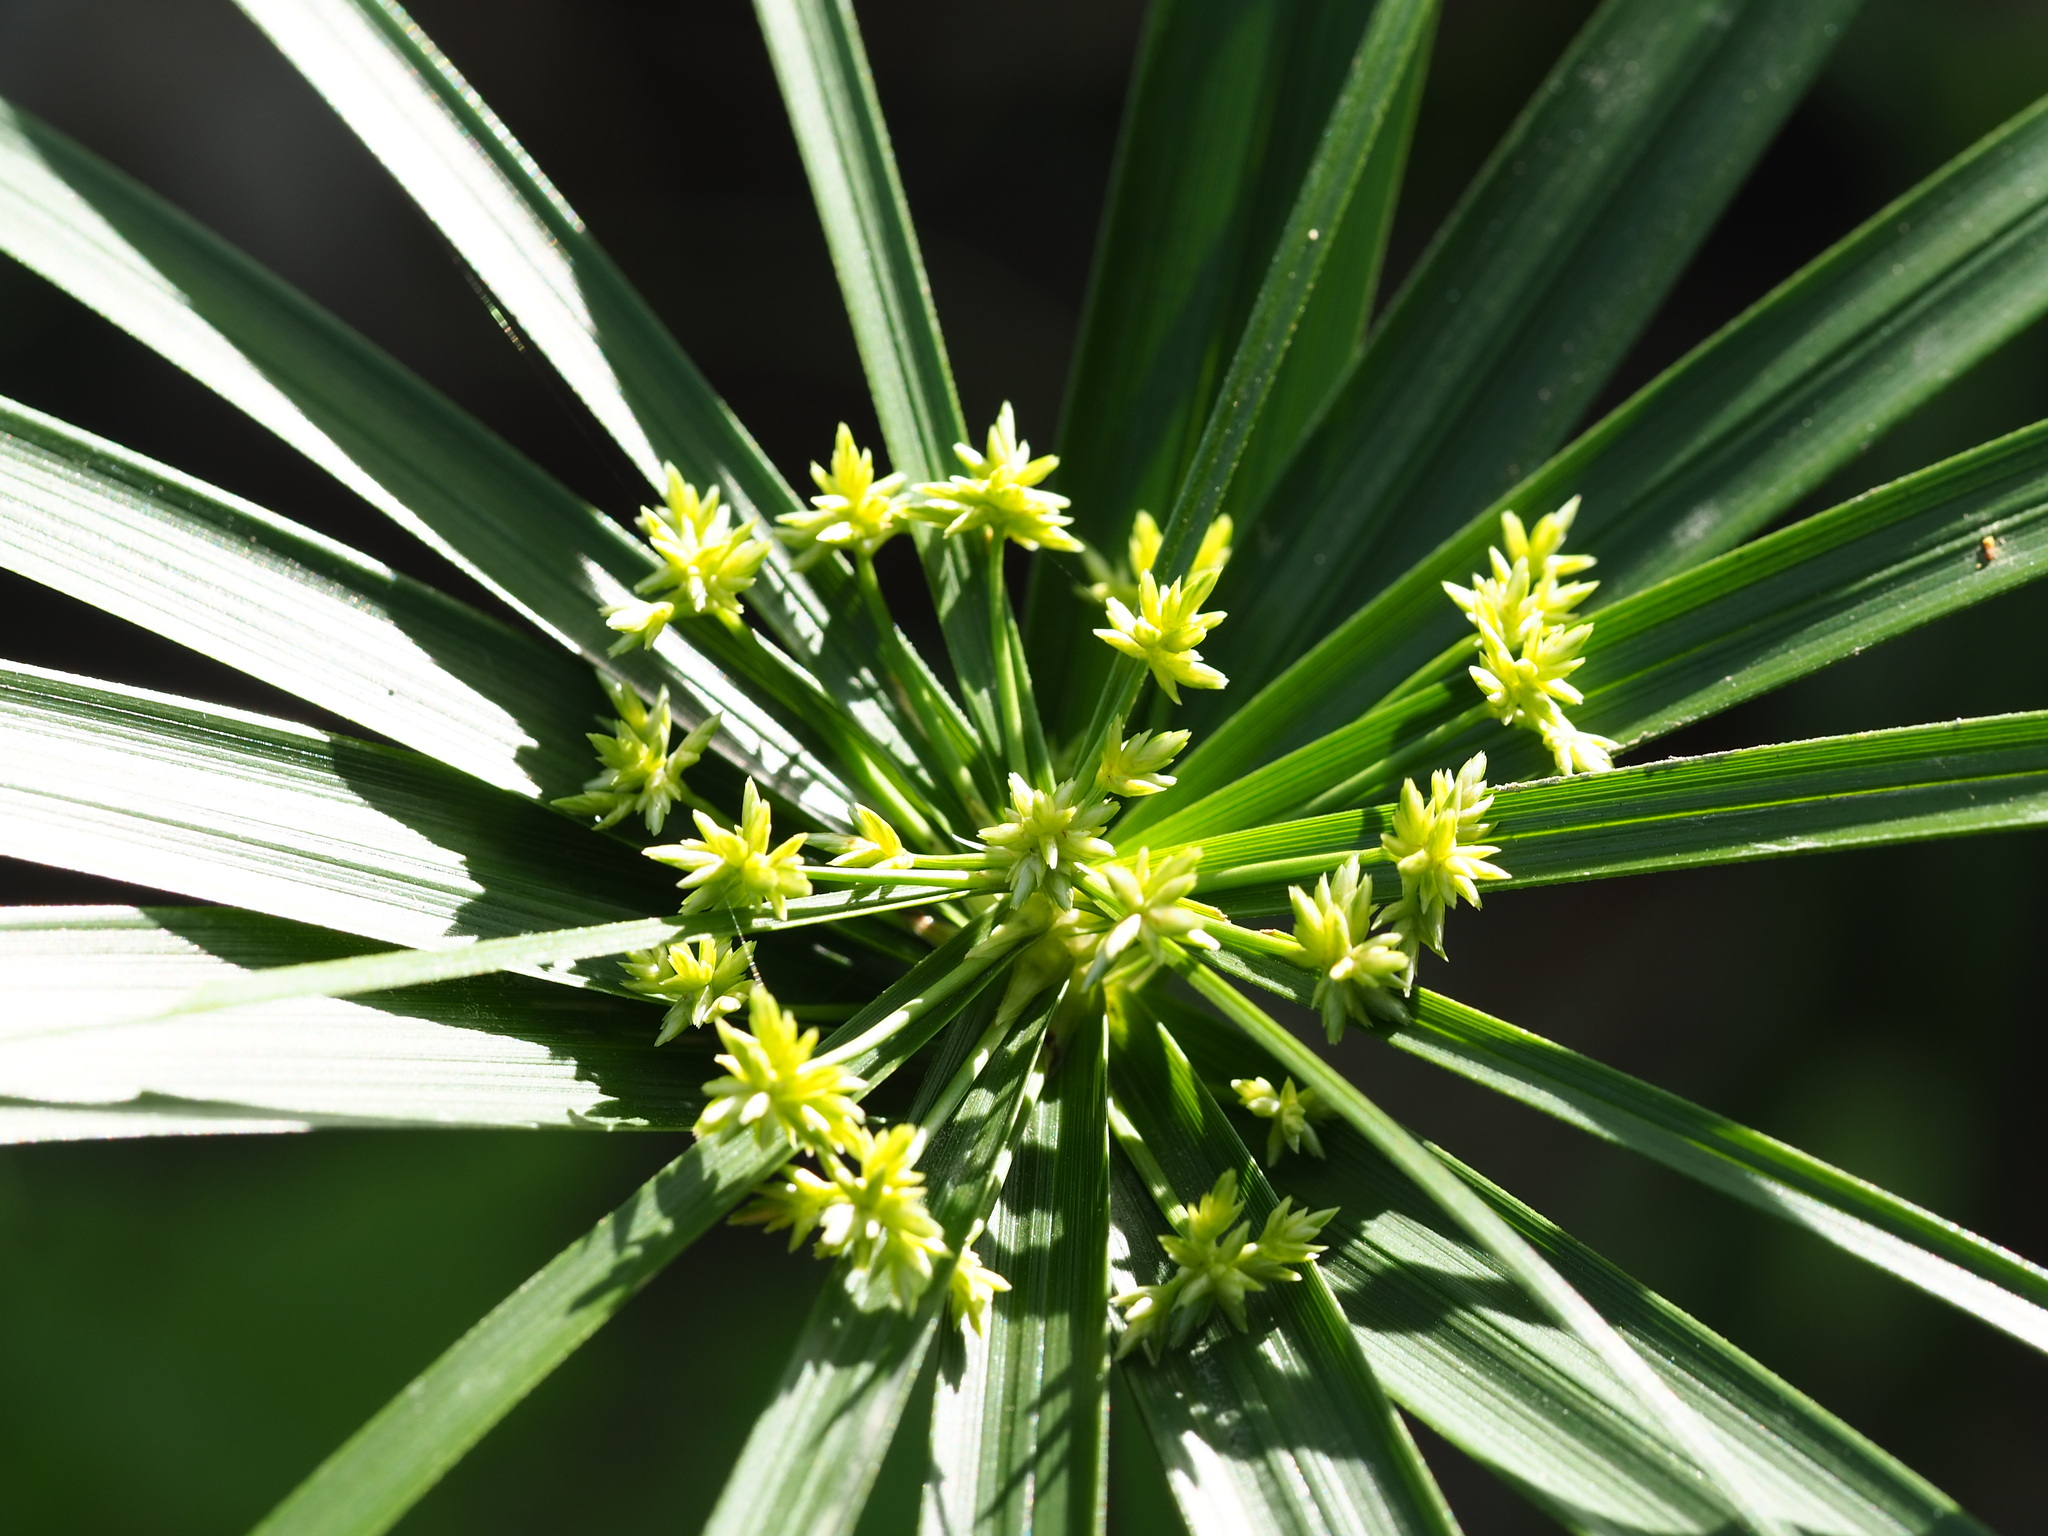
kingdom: Plantae
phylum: Tracheophyta
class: Liliopsida
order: Poales
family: Cyperaceae
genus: Cyperus
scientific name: Cyperus alternifolius
